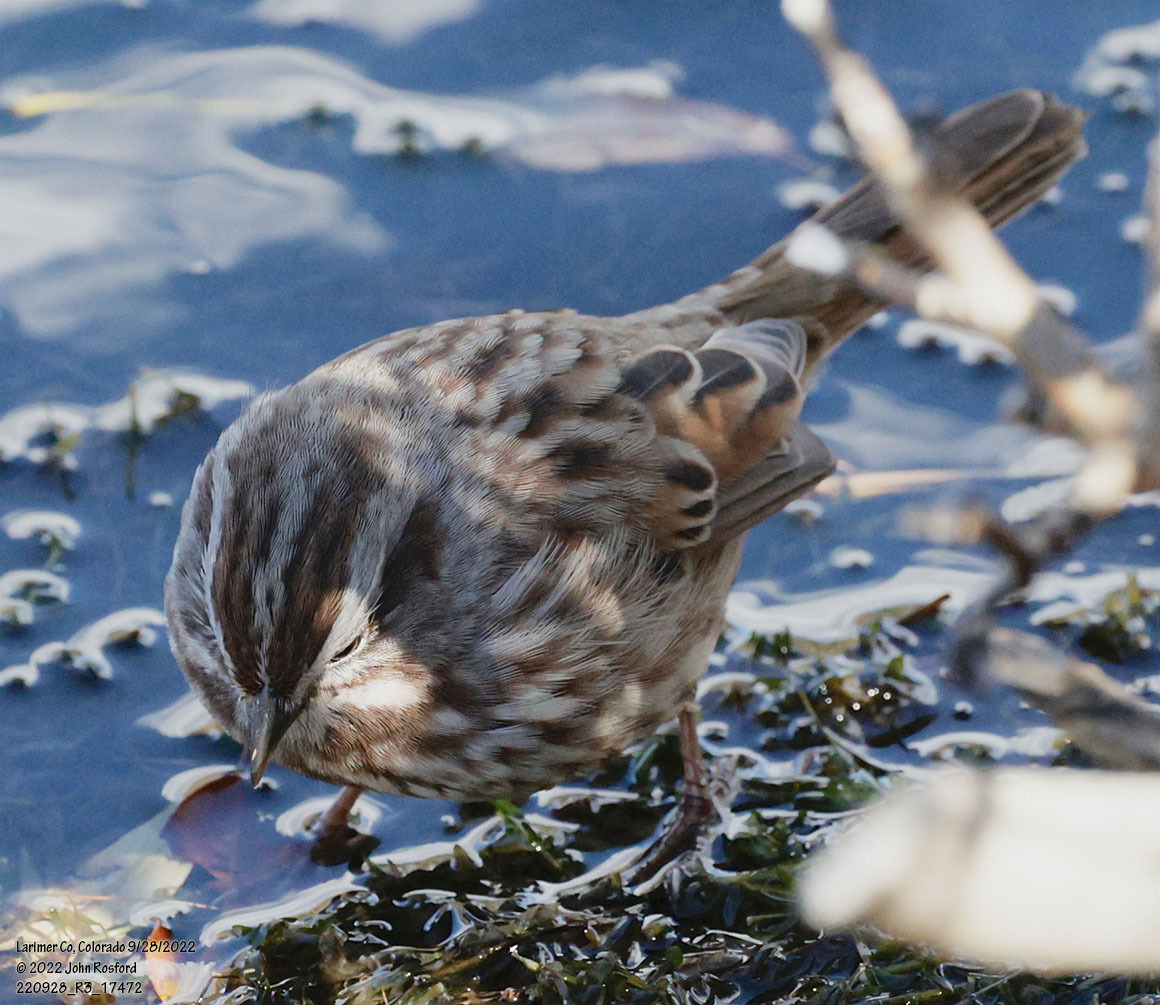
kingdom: Animalia
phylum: Chordata
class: Aves
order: Passeriformes
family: Passerellidae
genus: Melospiza
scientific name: Melospiza melodia
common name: Song sparrow
